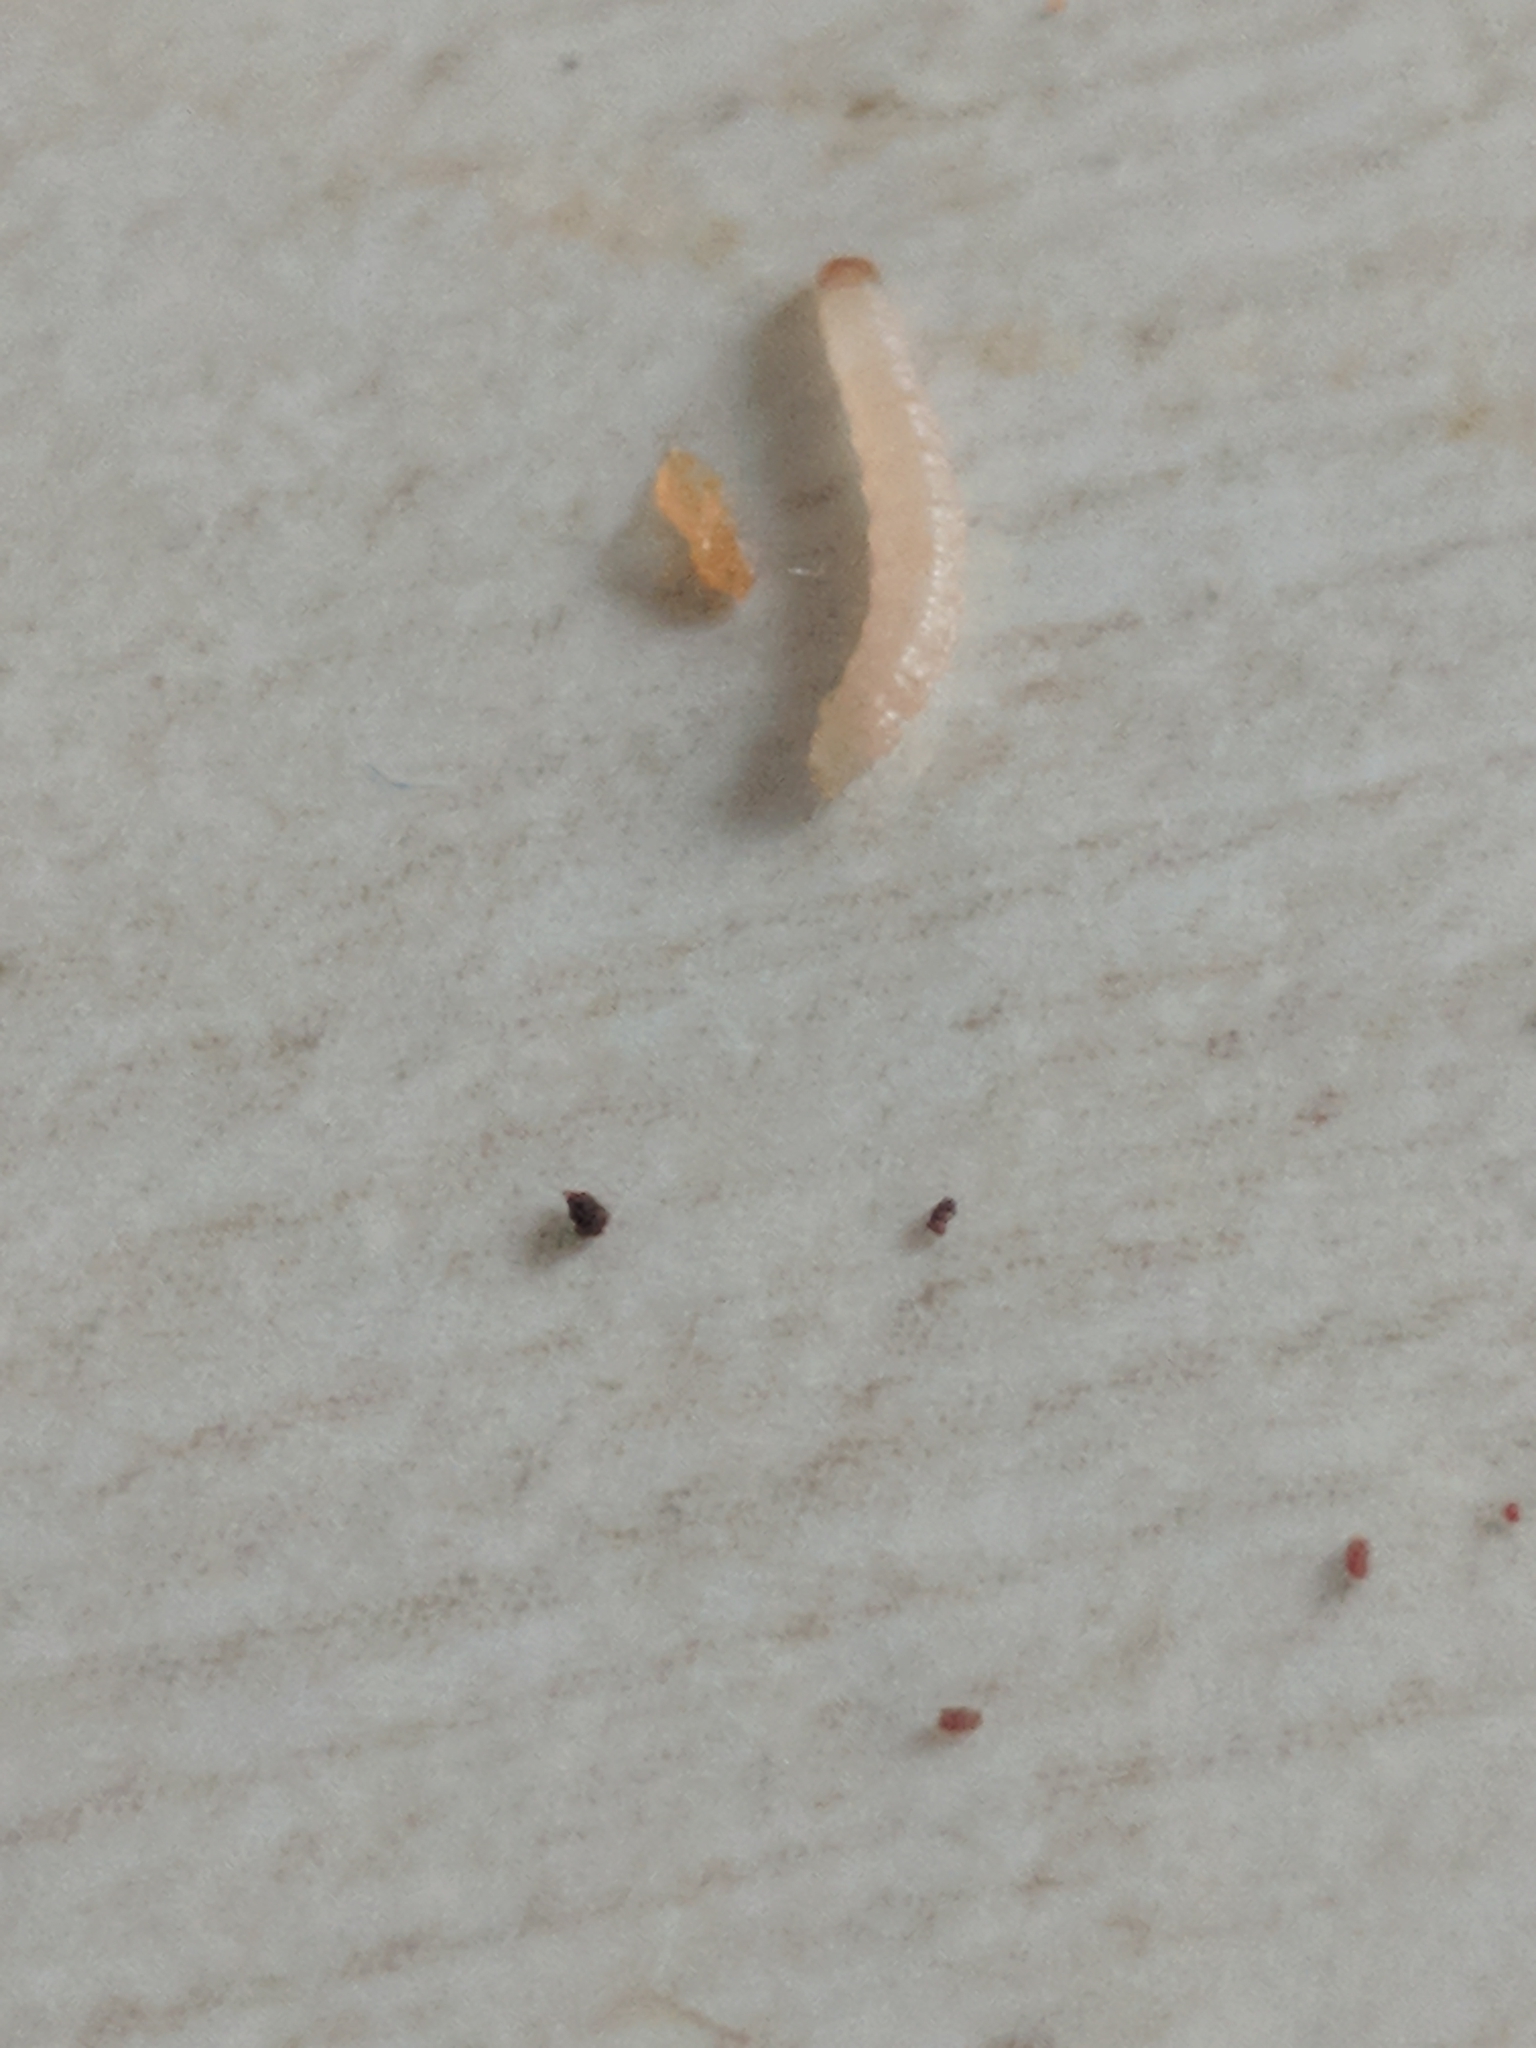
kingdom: Animalia
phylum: Arthropoda
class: Insecta
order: Lepidoptera
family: Pyralidae
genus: Plodia
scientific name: Plodia interpunctella
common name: Indian meal moth
